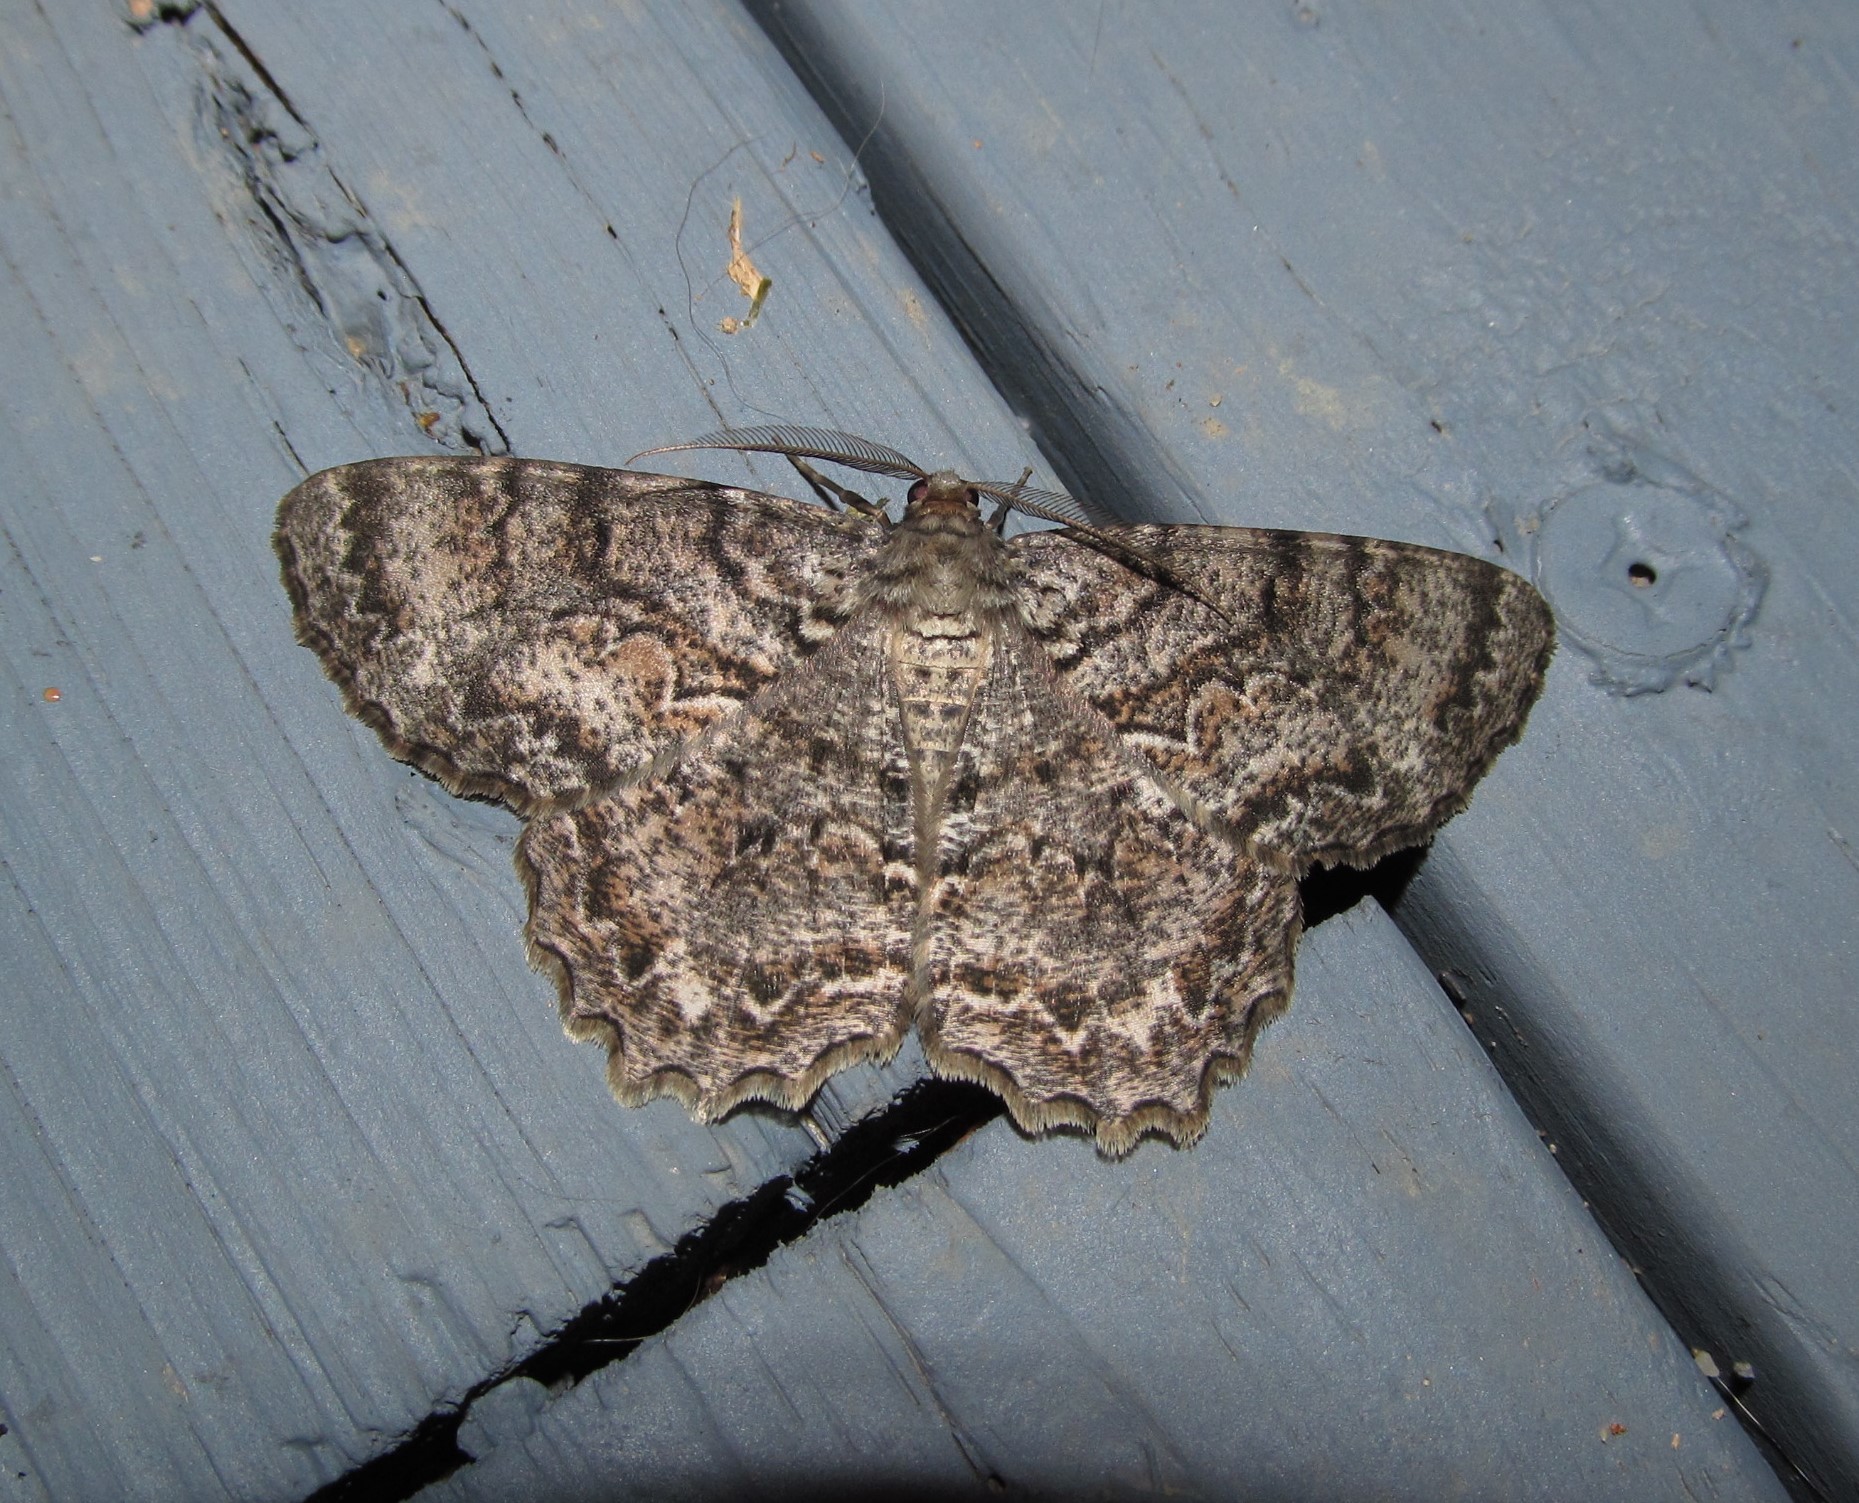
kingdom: Animalia
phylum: Arthropoda
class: Insecta
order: Lepidoptera
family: Geometridae
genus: Epimecis
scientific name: Epimecis hortaria
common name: Tulip-tree beauty
